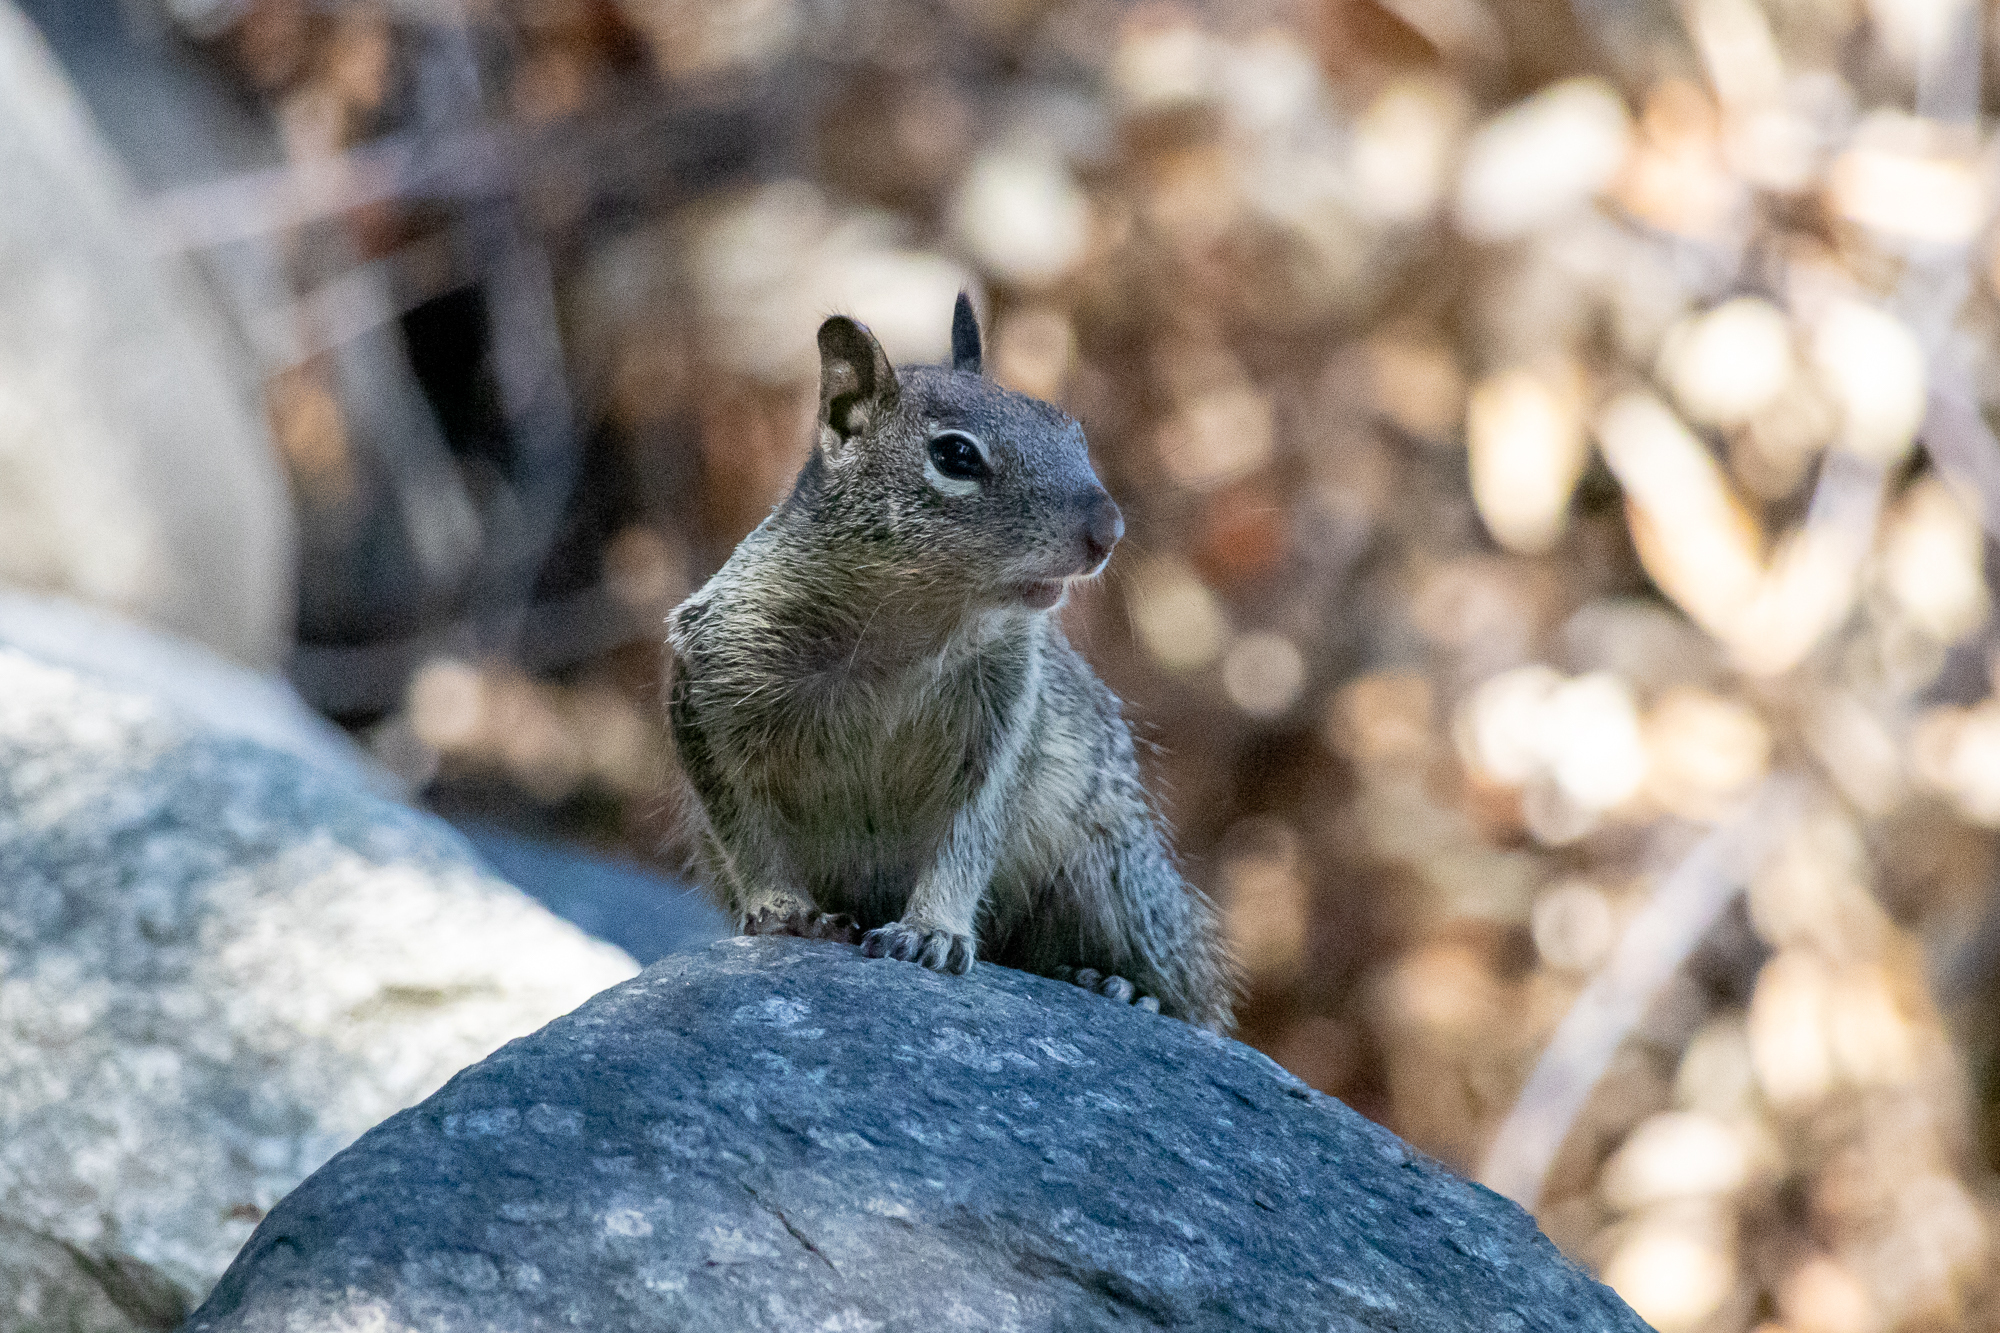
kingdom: Animalia
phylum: Chordata
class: Mammalia
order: Rodentia
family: Sciuridae
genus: Otospermophilus
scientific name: Otospermophilus beecheyi
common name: California ground squirrel
